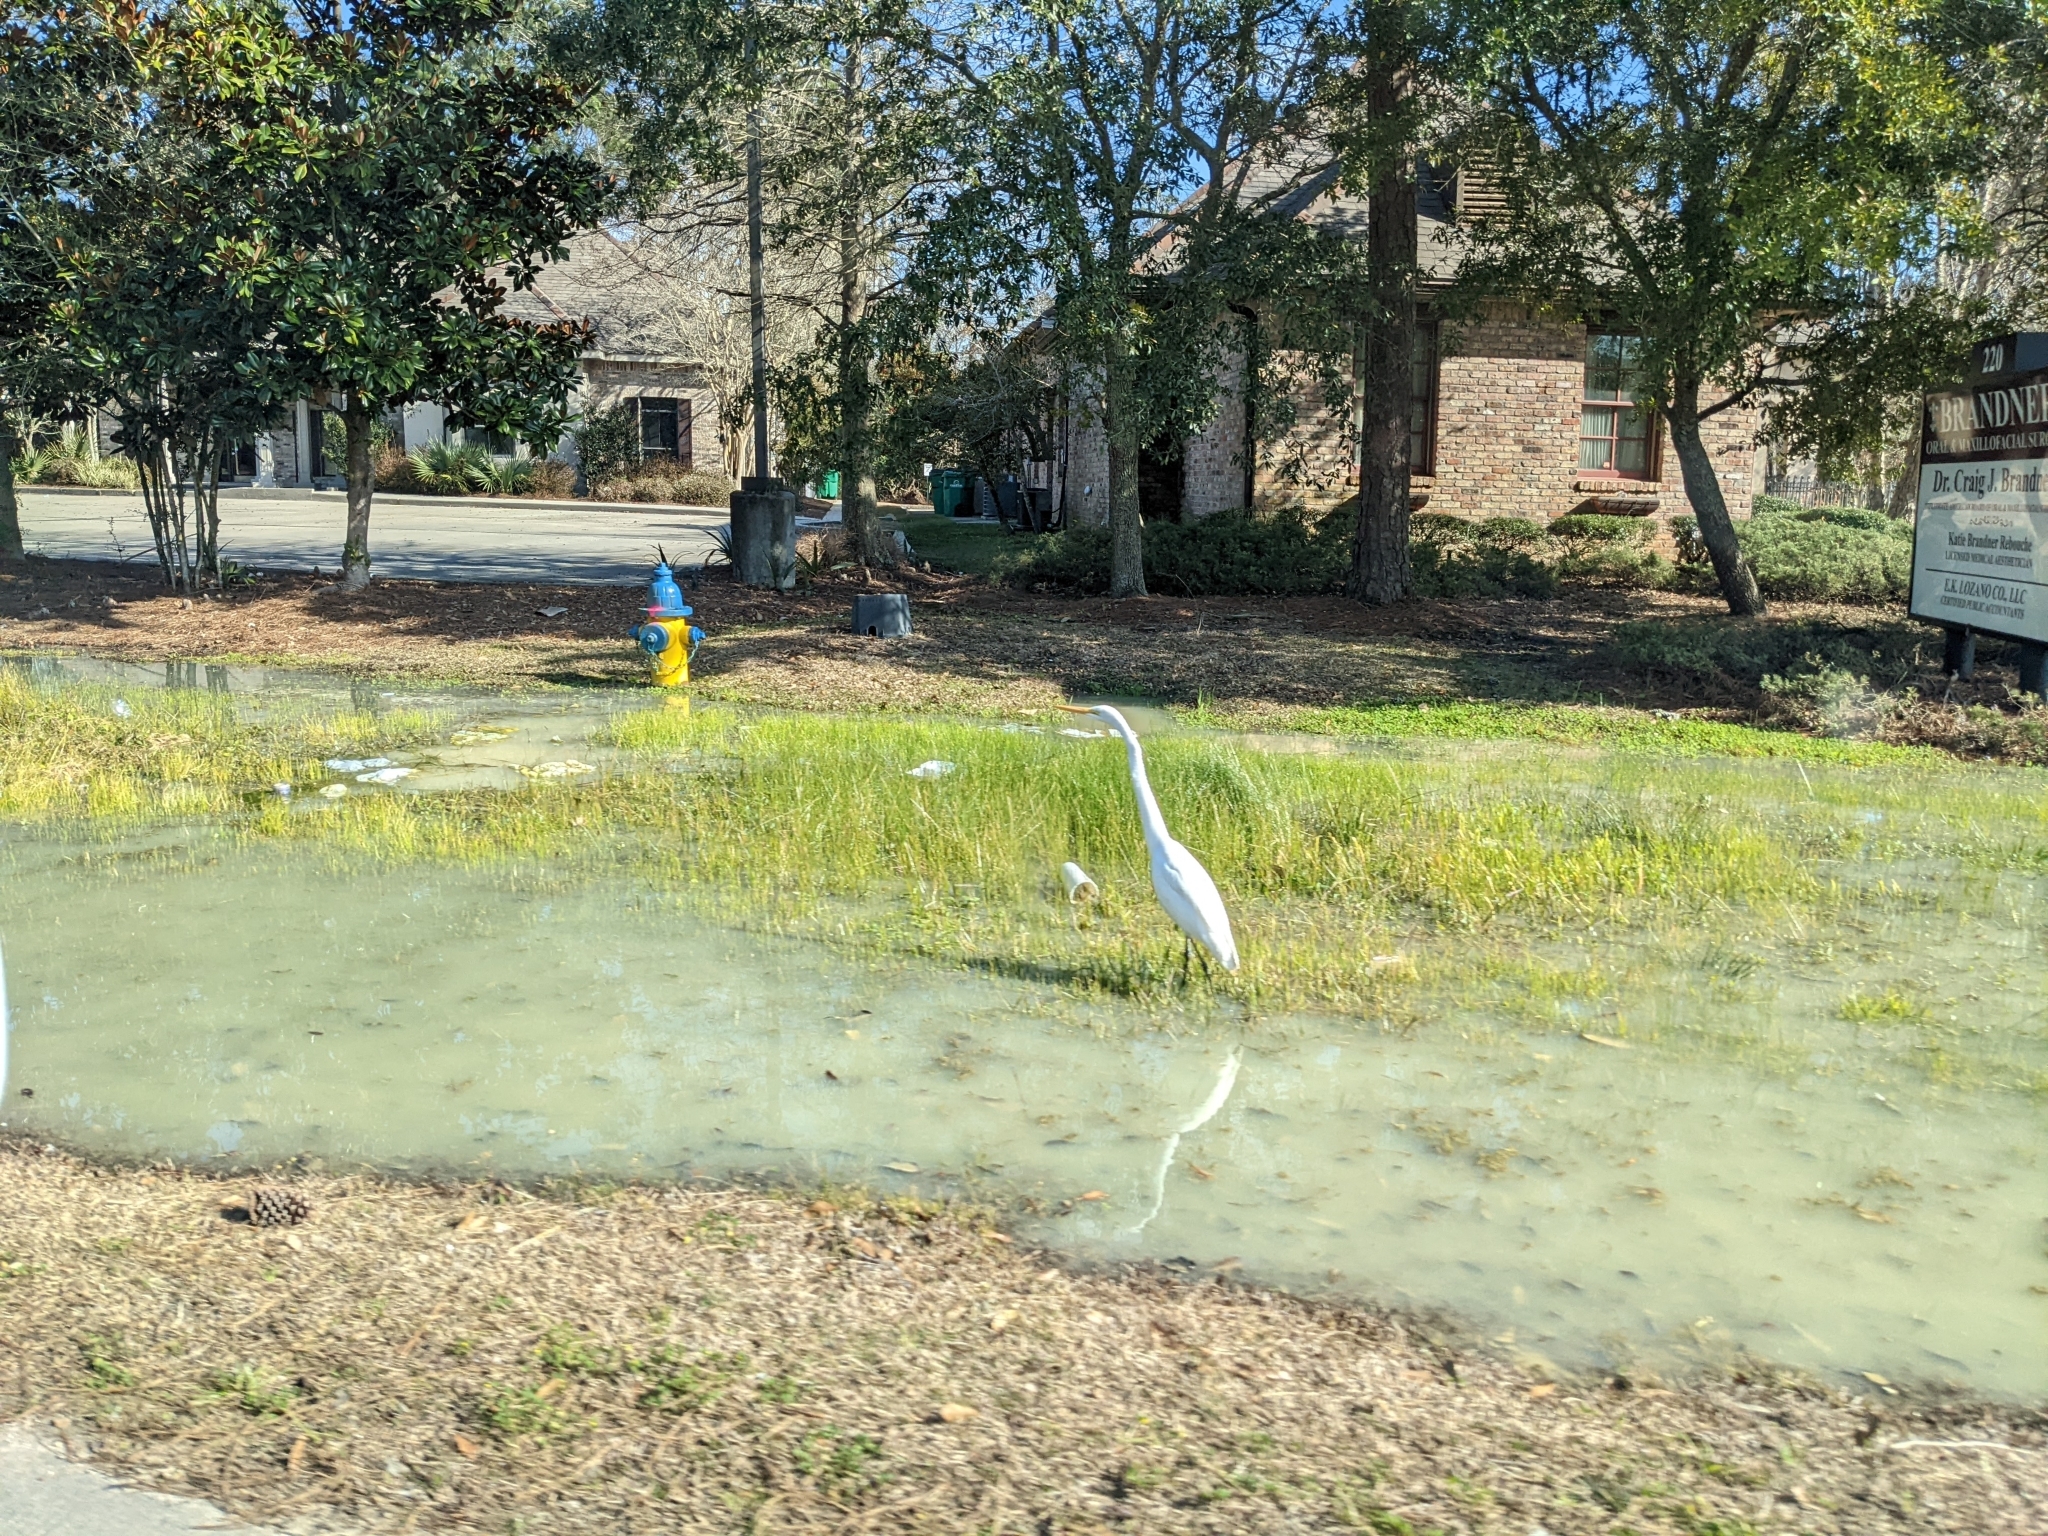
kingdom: Animalia
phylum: Chordata
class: Aves
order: Pelecaniformes
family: Ardeidae
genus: Ardea
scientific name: Ardea alba
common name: Great egret
